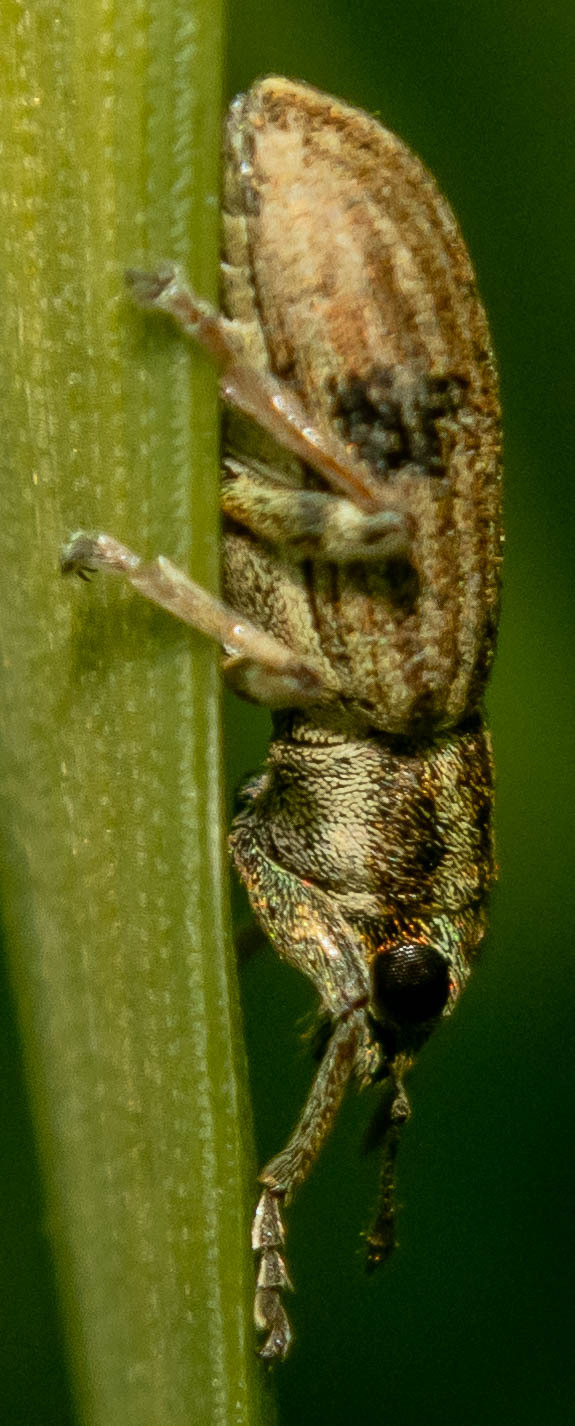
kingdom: Animalia
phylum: Arthropoda
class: Insecta
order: Coleoptera
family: Curculionidae
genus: Sitona
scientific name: Sitona lineatus
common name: Weevil
